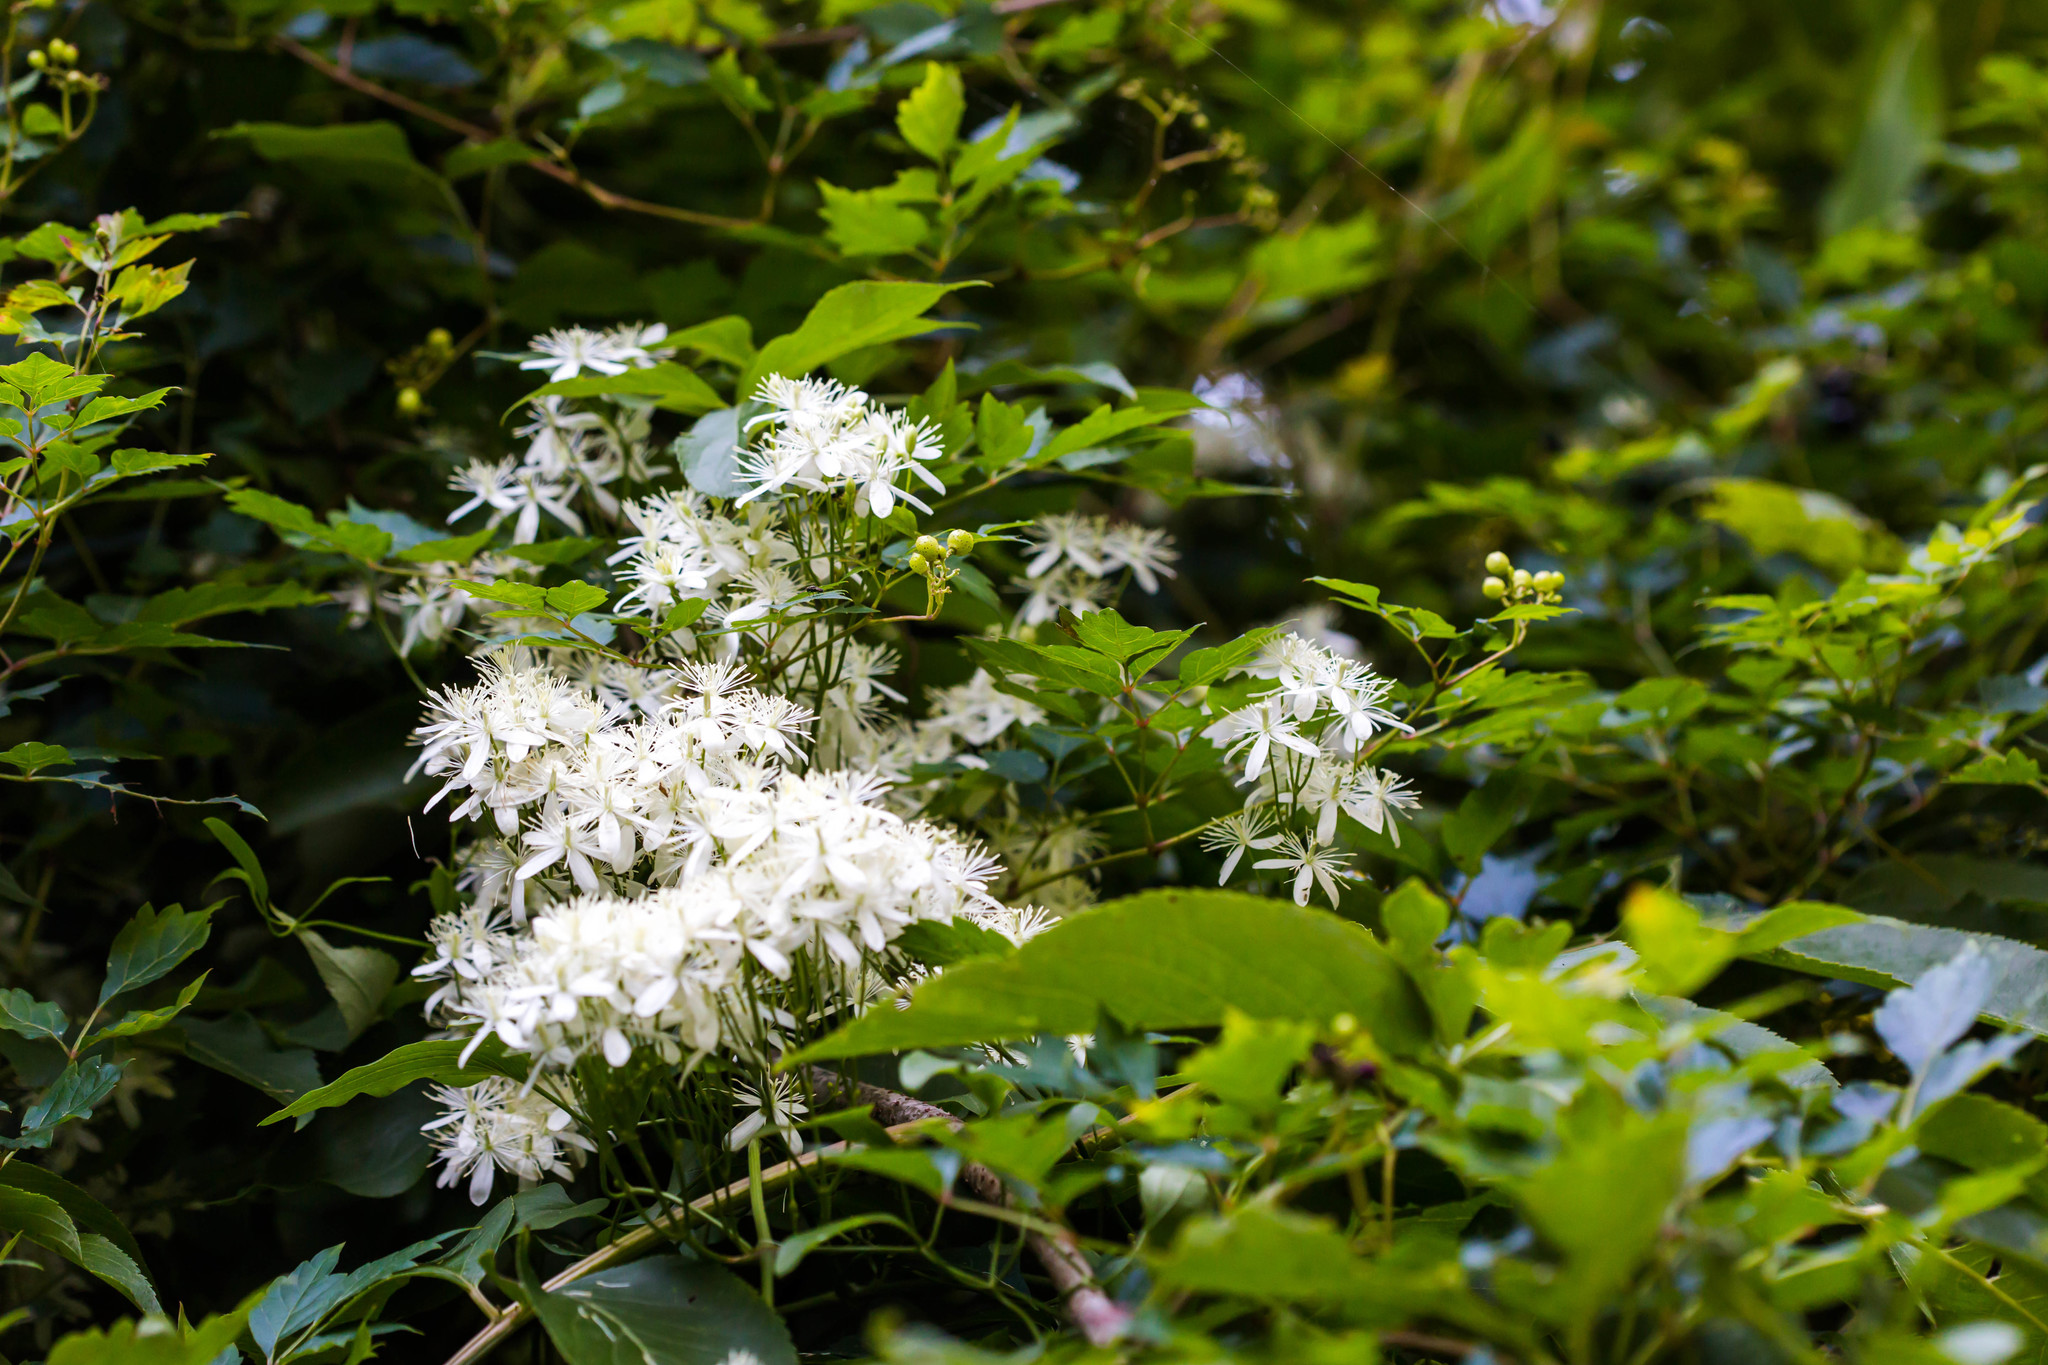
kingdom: Plantae
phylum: Tracheophyta
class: Magnoliopsida
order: Ranunculales
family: Ranunculaceae
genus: Clematis
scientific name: Clematis virginiana
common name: Virgin's-bower
